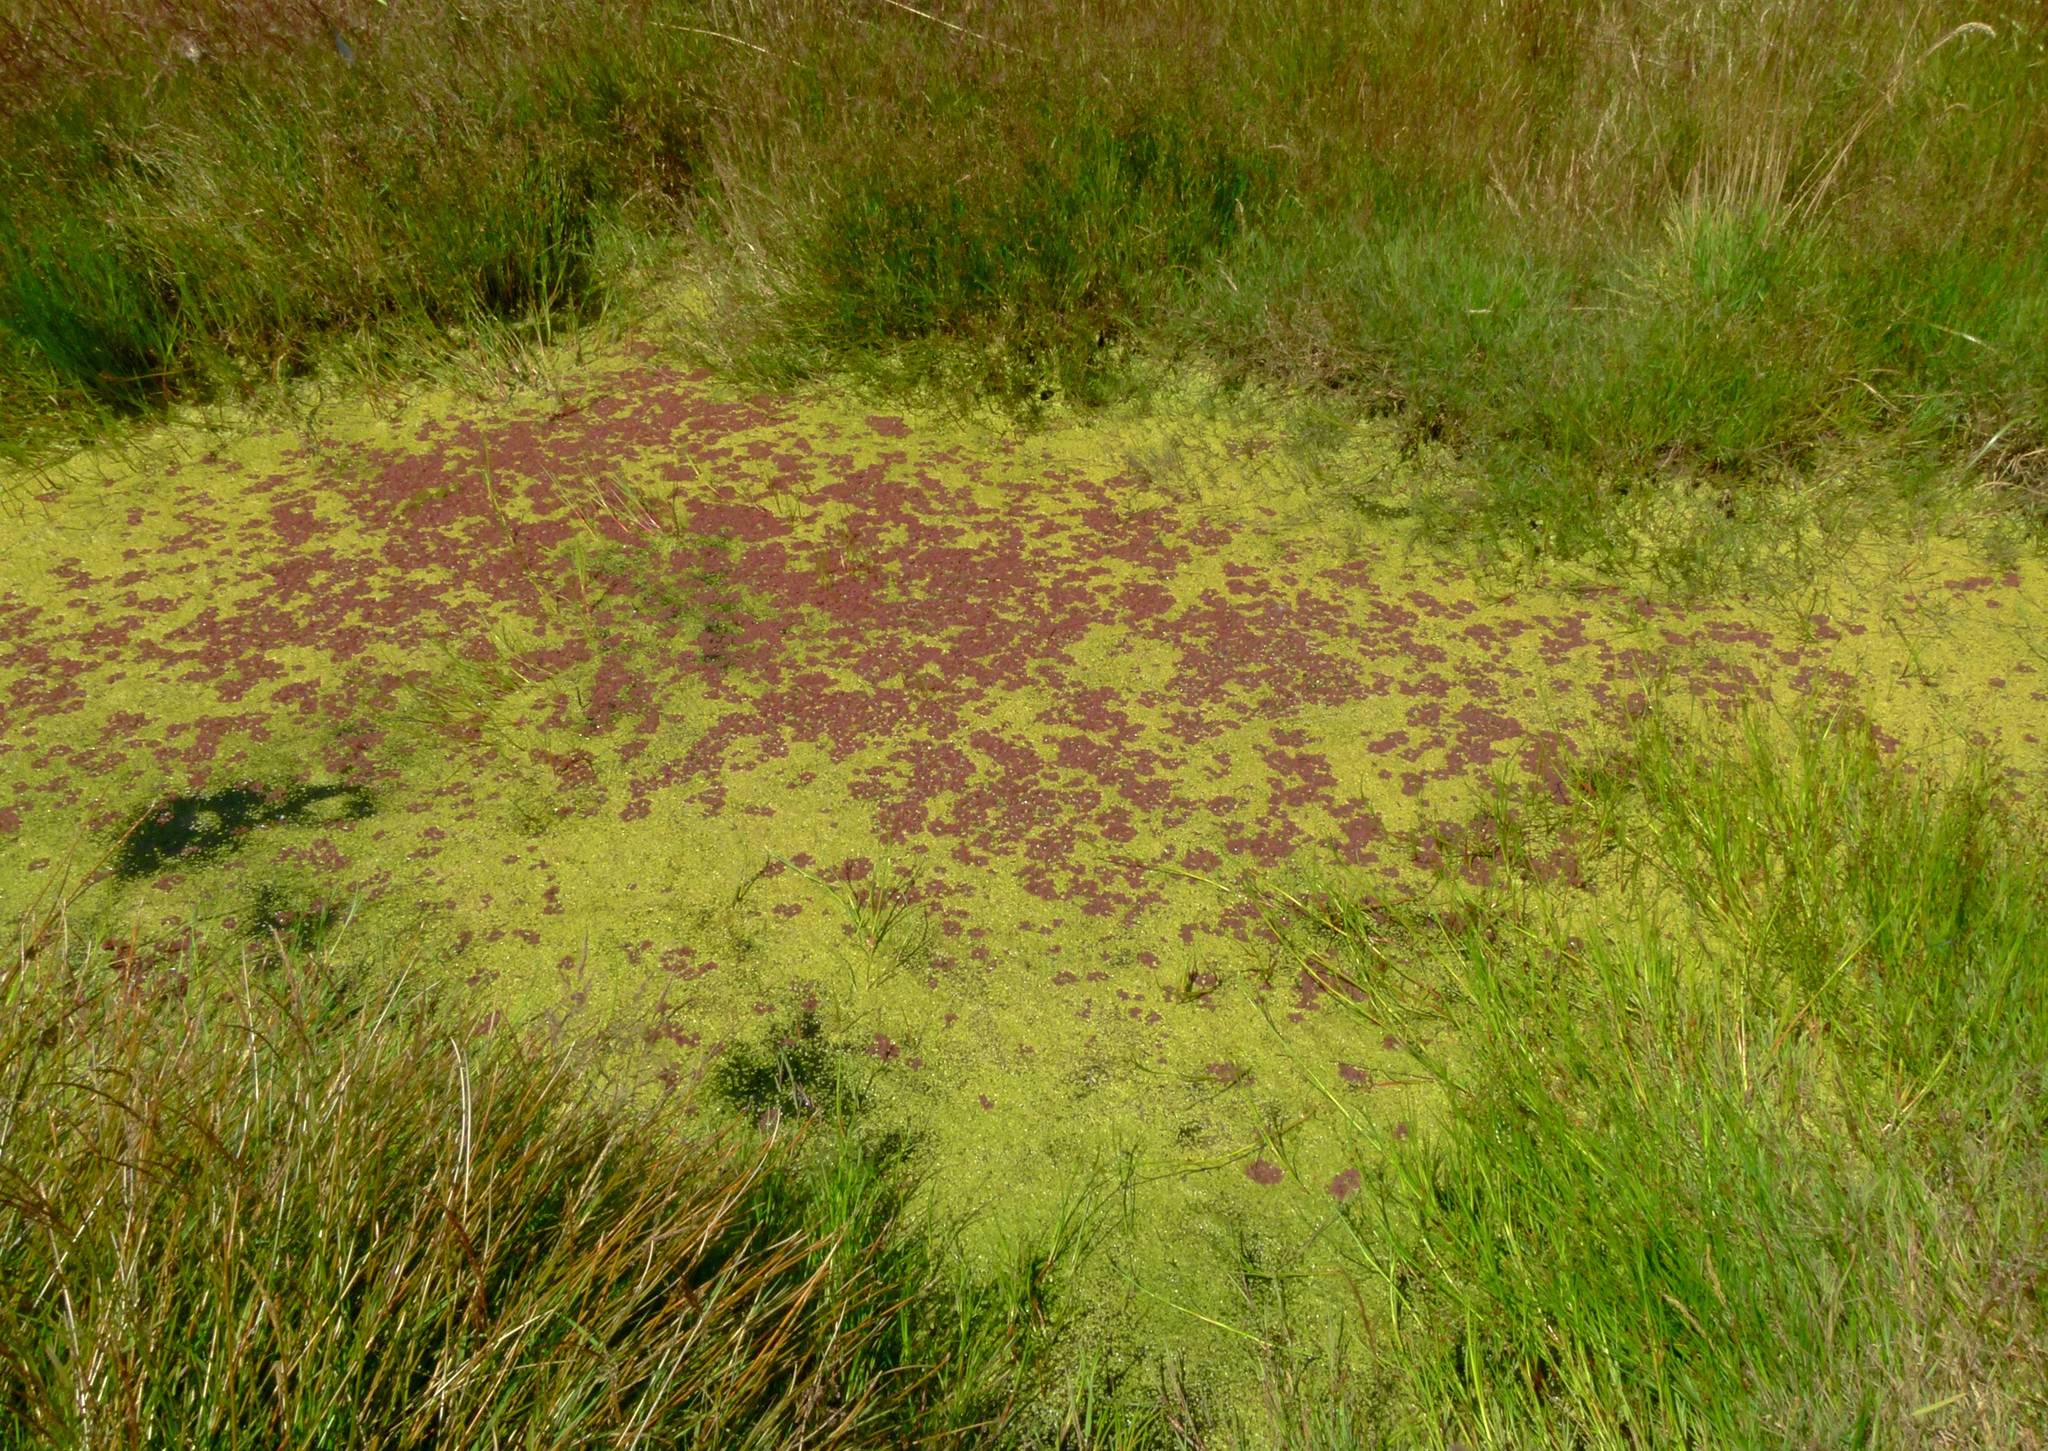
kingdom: Plantae
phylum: Tracheophyta
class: Polypodiopsida
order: Salviniales
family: Salviniaceae
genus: Azolla
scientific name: Azolla rubra
